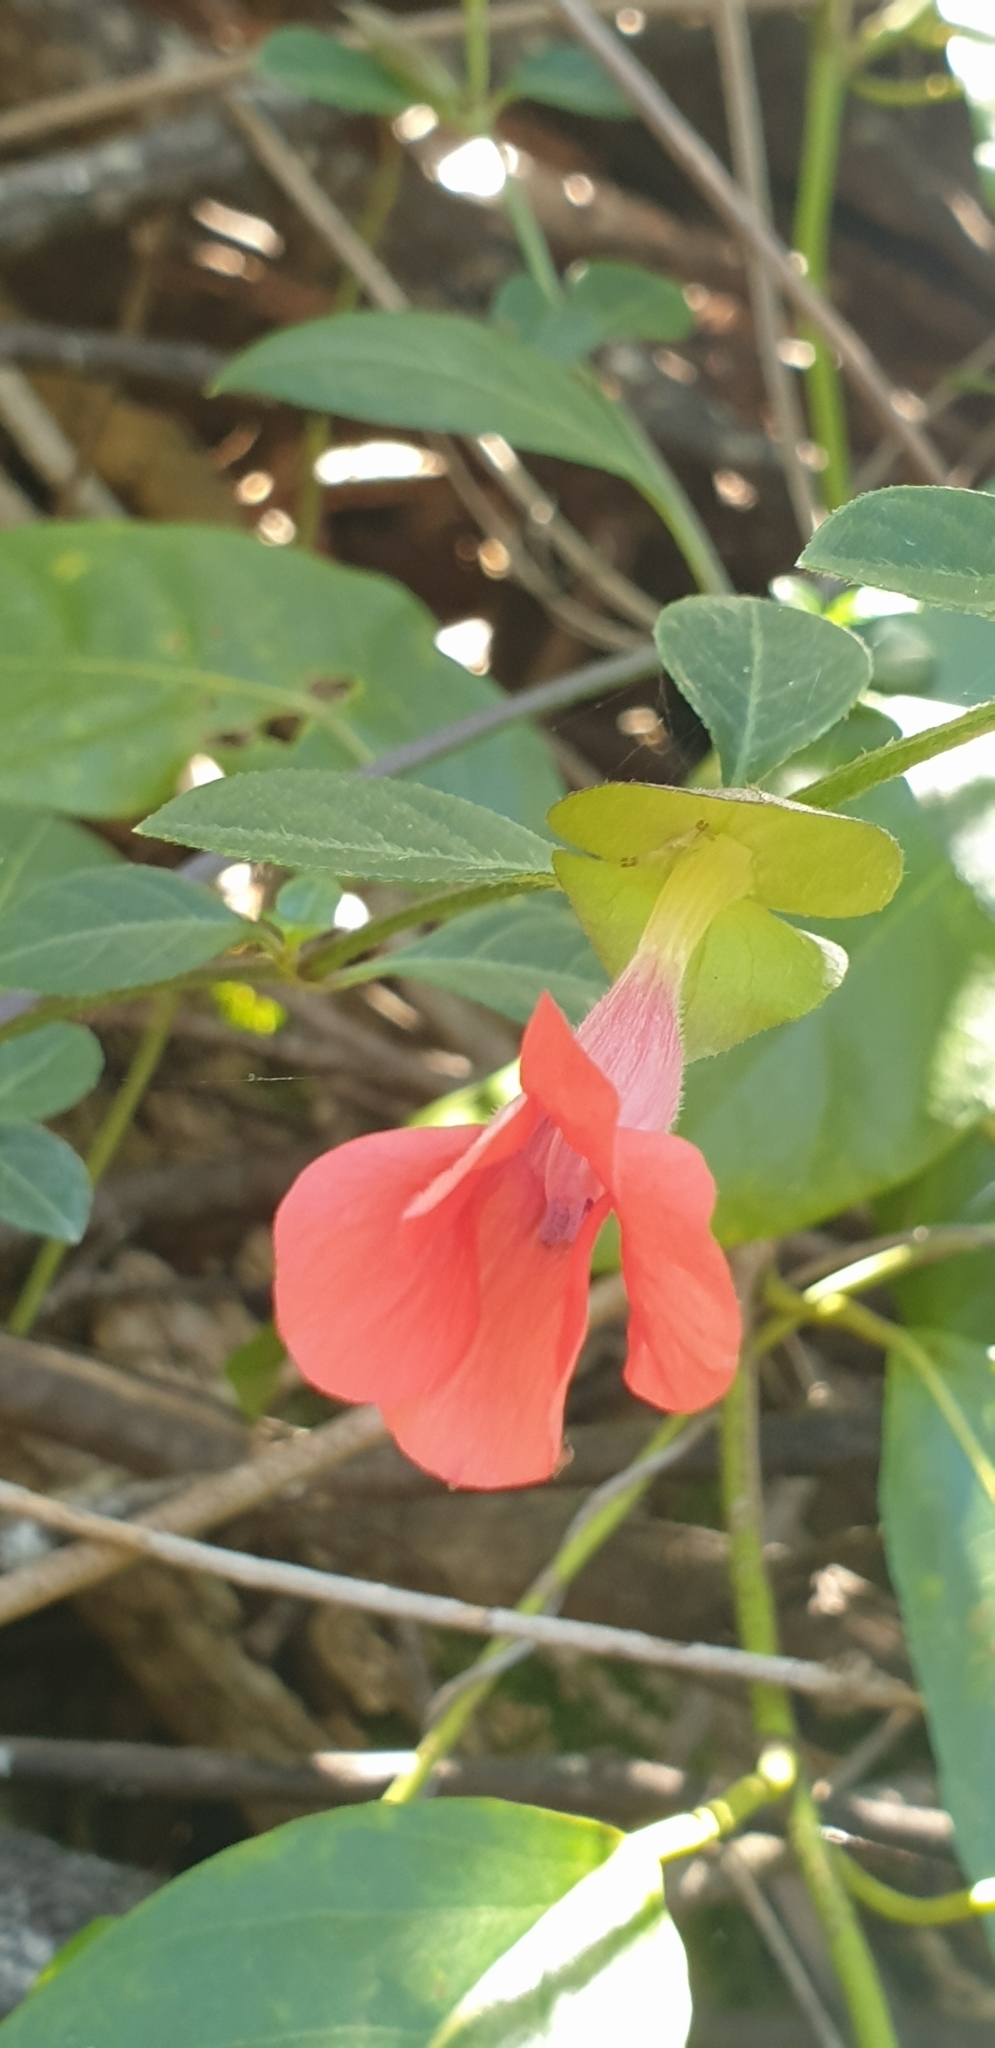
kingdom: Plantae
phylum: Tracheophyta
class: Magnoliopsida
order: Lamiales
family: Acanthaceae
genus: Barleria
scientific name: Barleria repens
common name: Pink-ruellia
